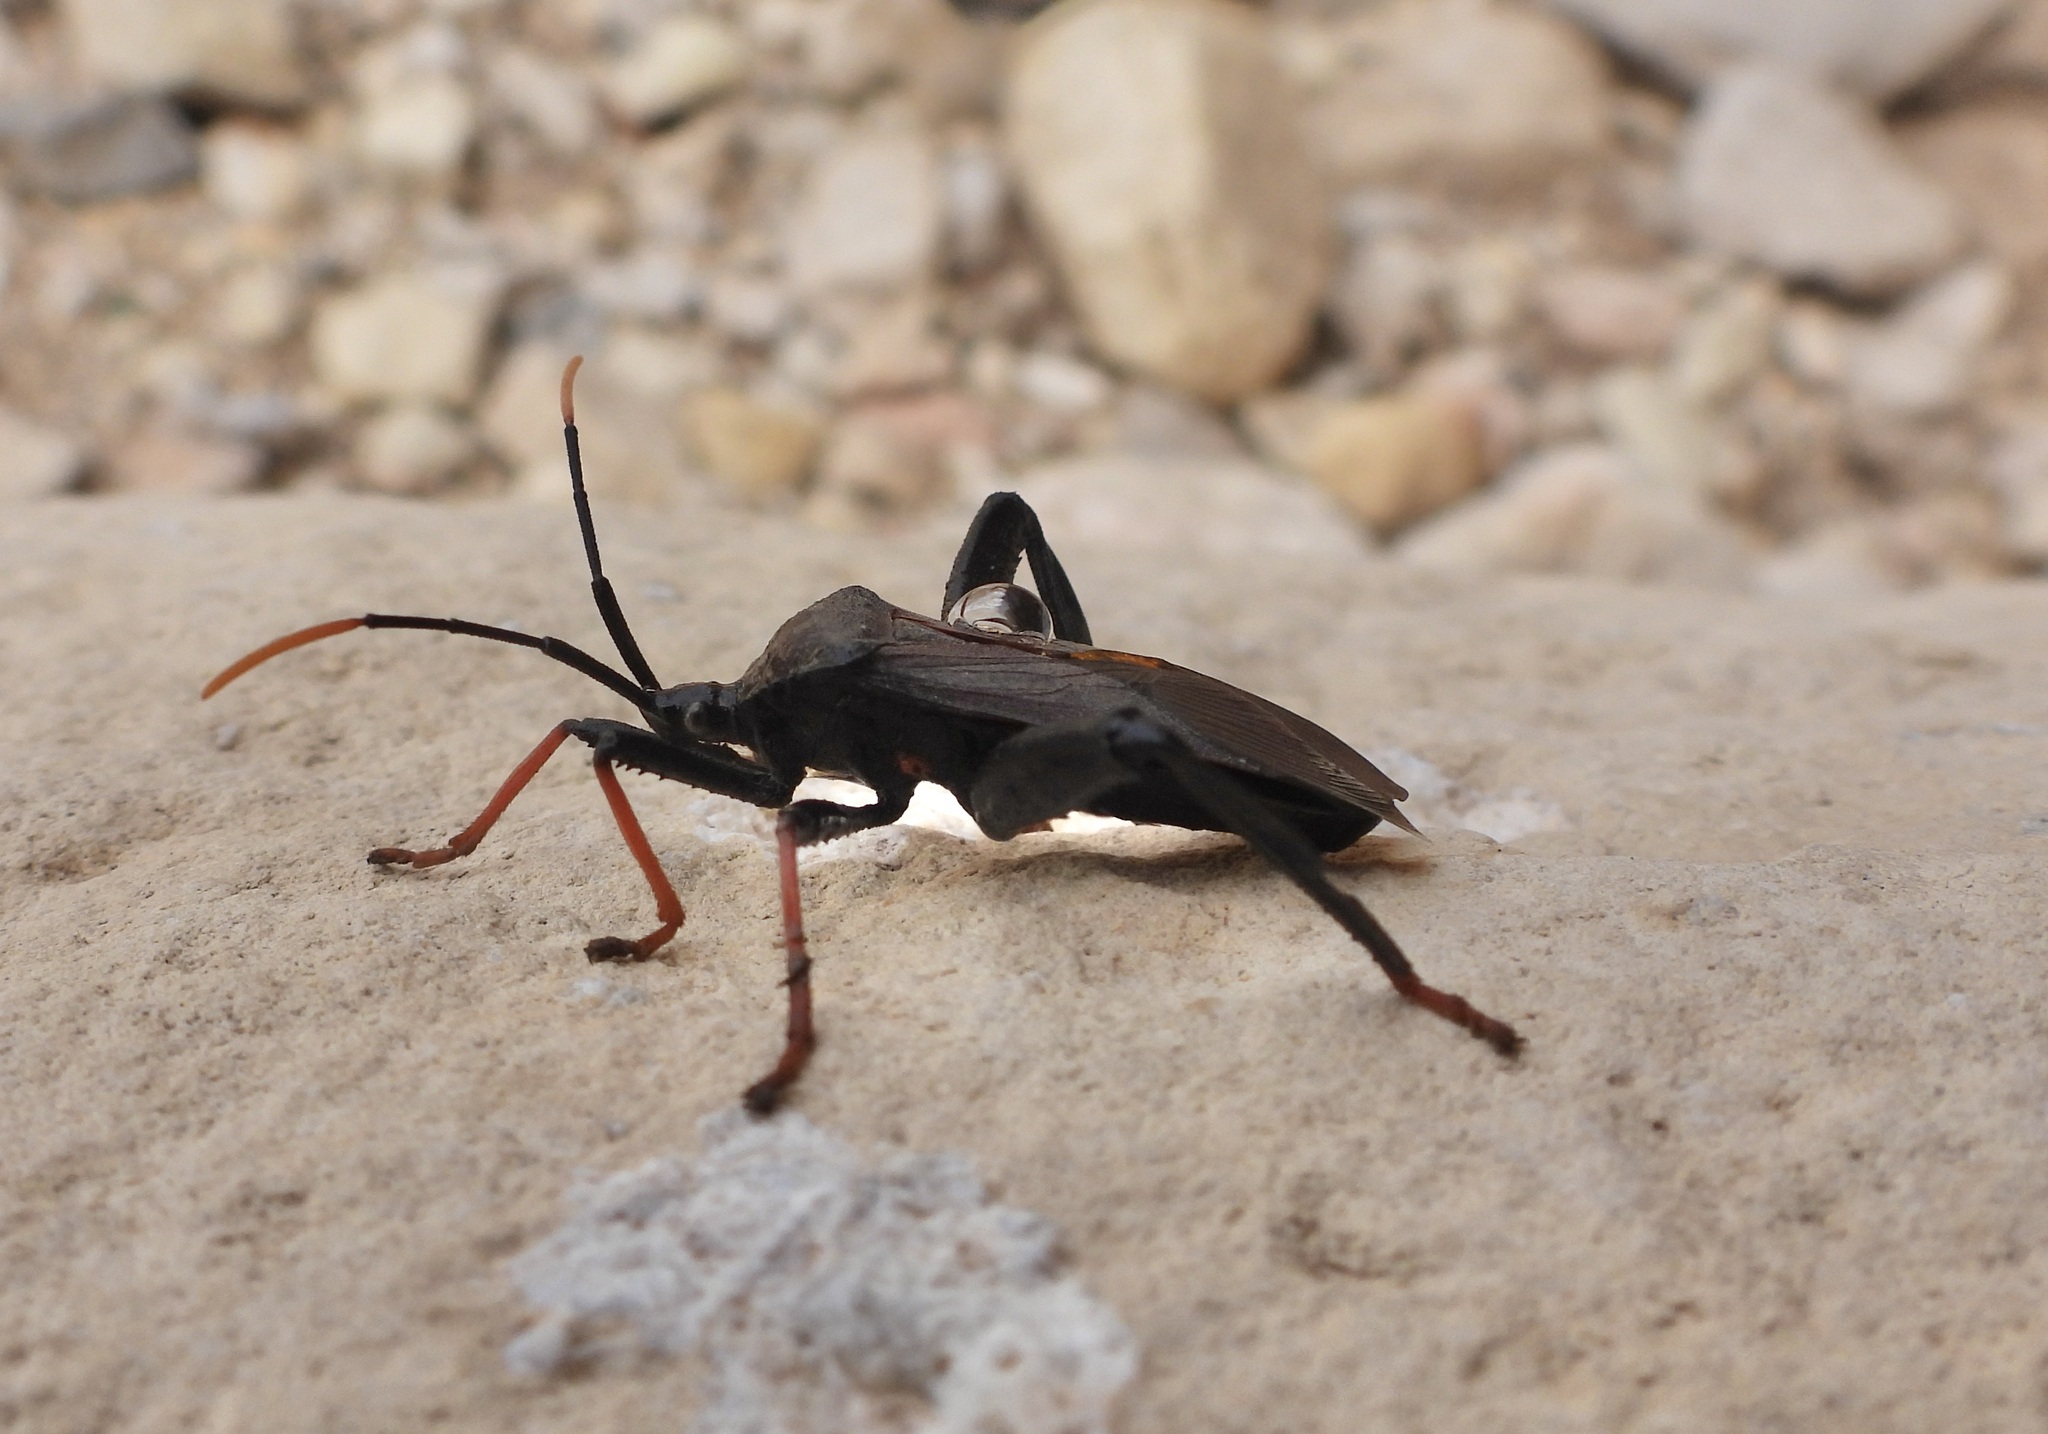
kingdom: Animalia
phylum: Arthropoda
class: Insecta
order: Hemiptera
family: Coreidae
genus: Acanthocephala
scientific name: Acanthocephala thomasi
